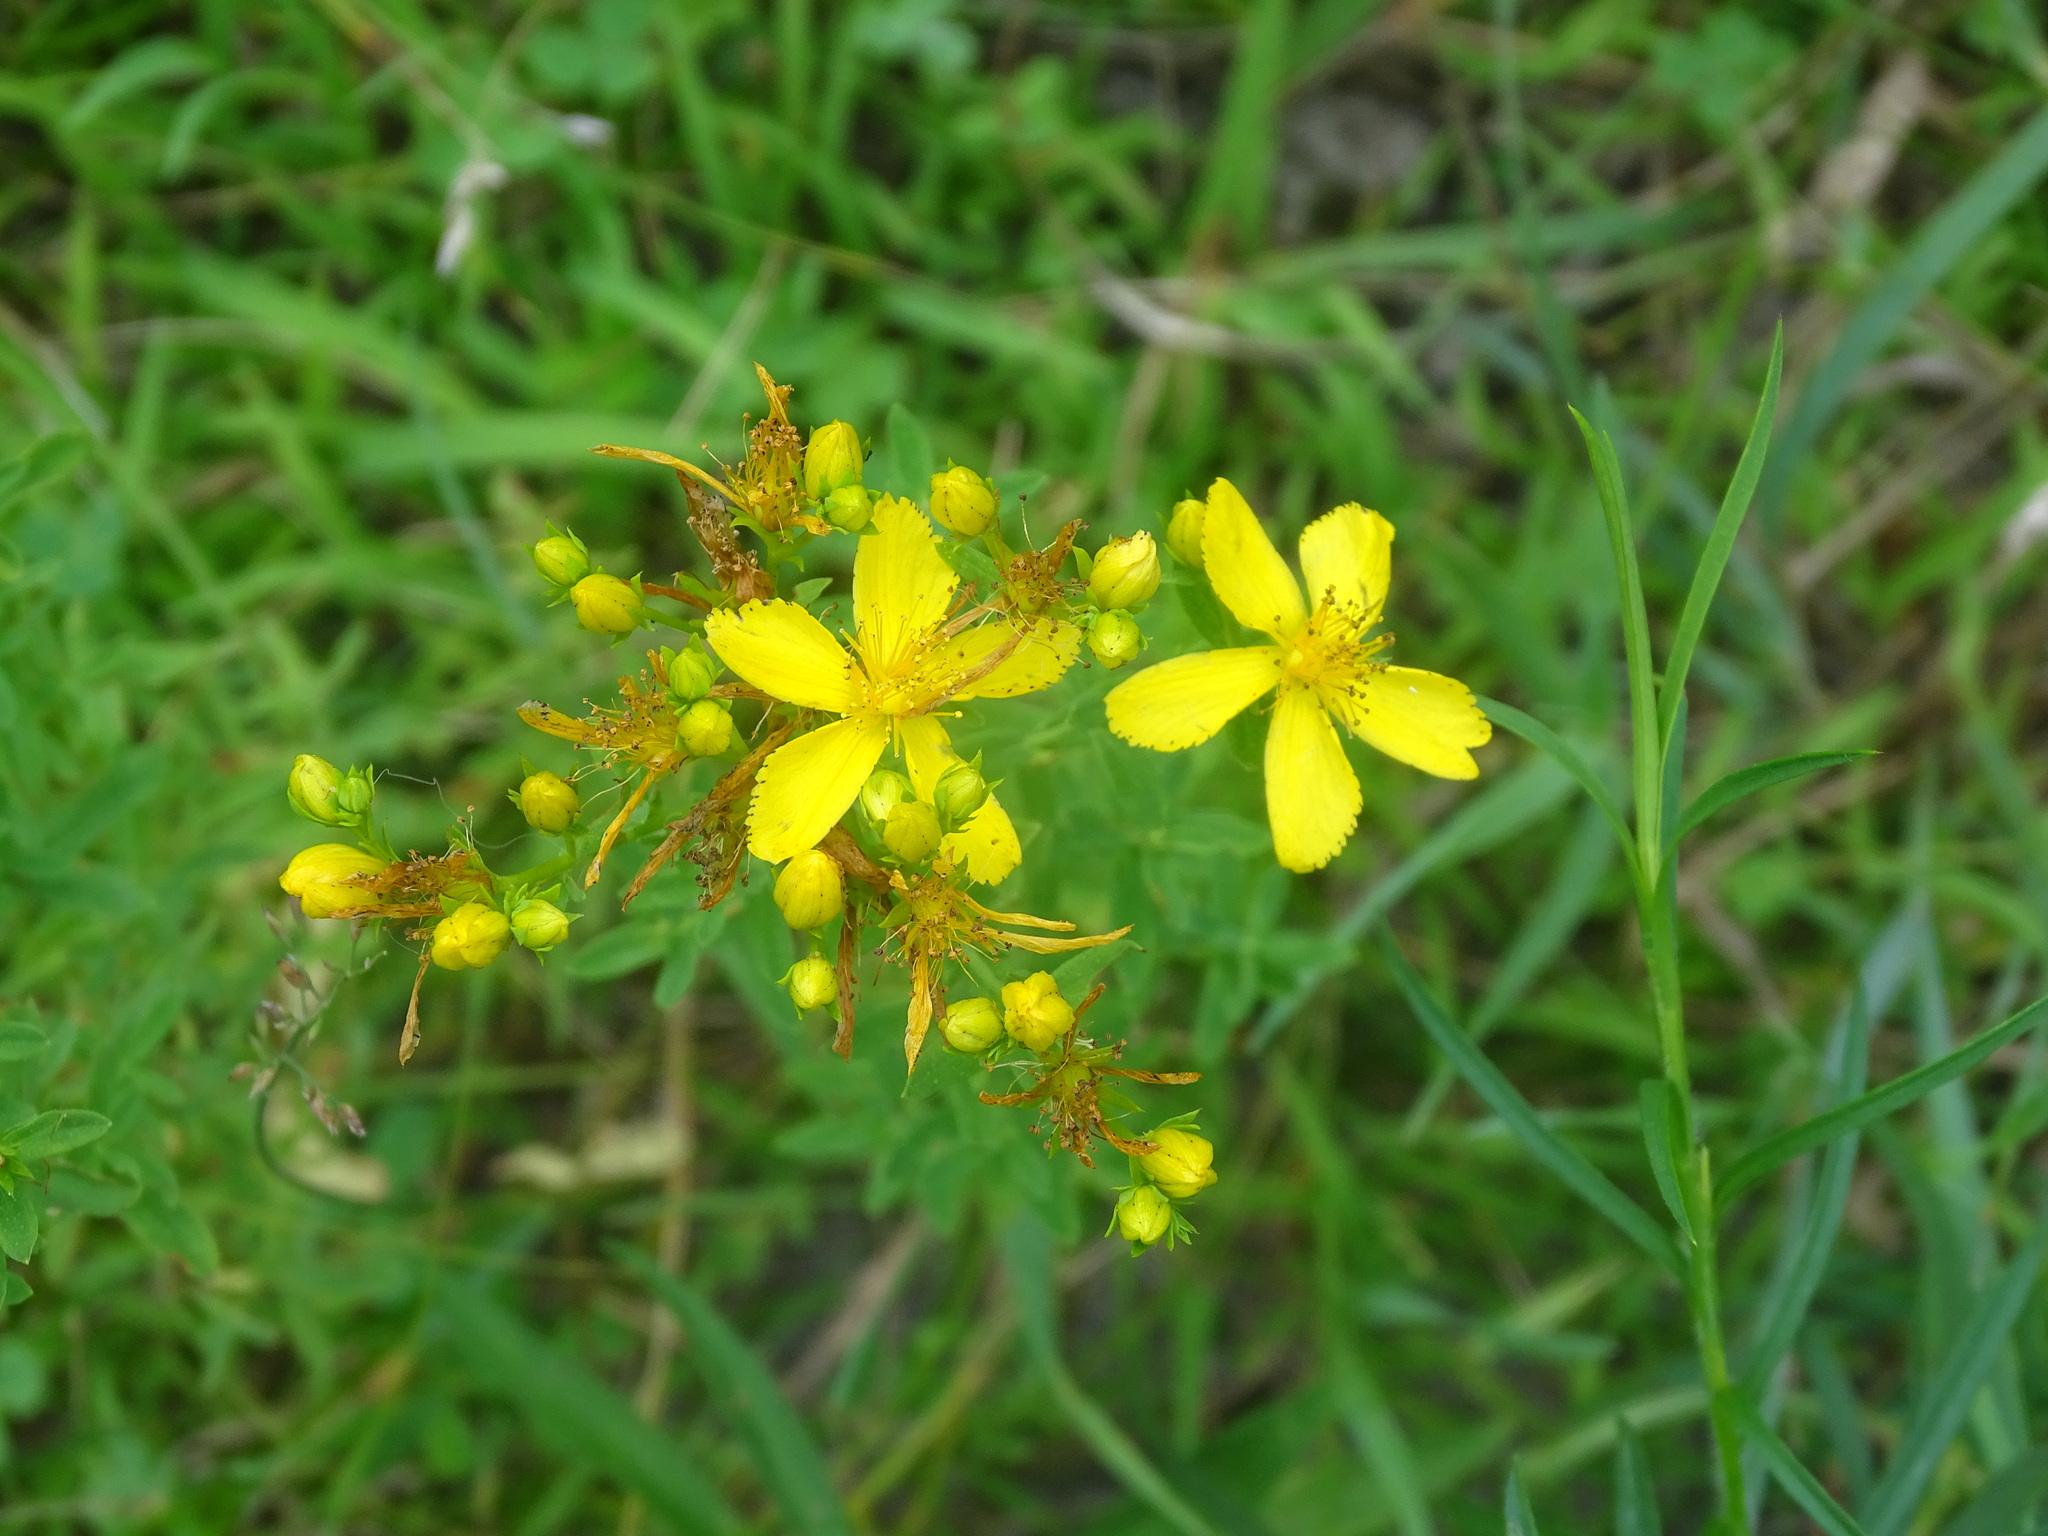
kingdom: Plantae
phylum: Tracheophyta
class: Magnoliopsida
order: Malpighiales
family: Hypericaceae
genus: Hypericum
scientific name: Hypericum perforatum
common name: Common st. johnswort
